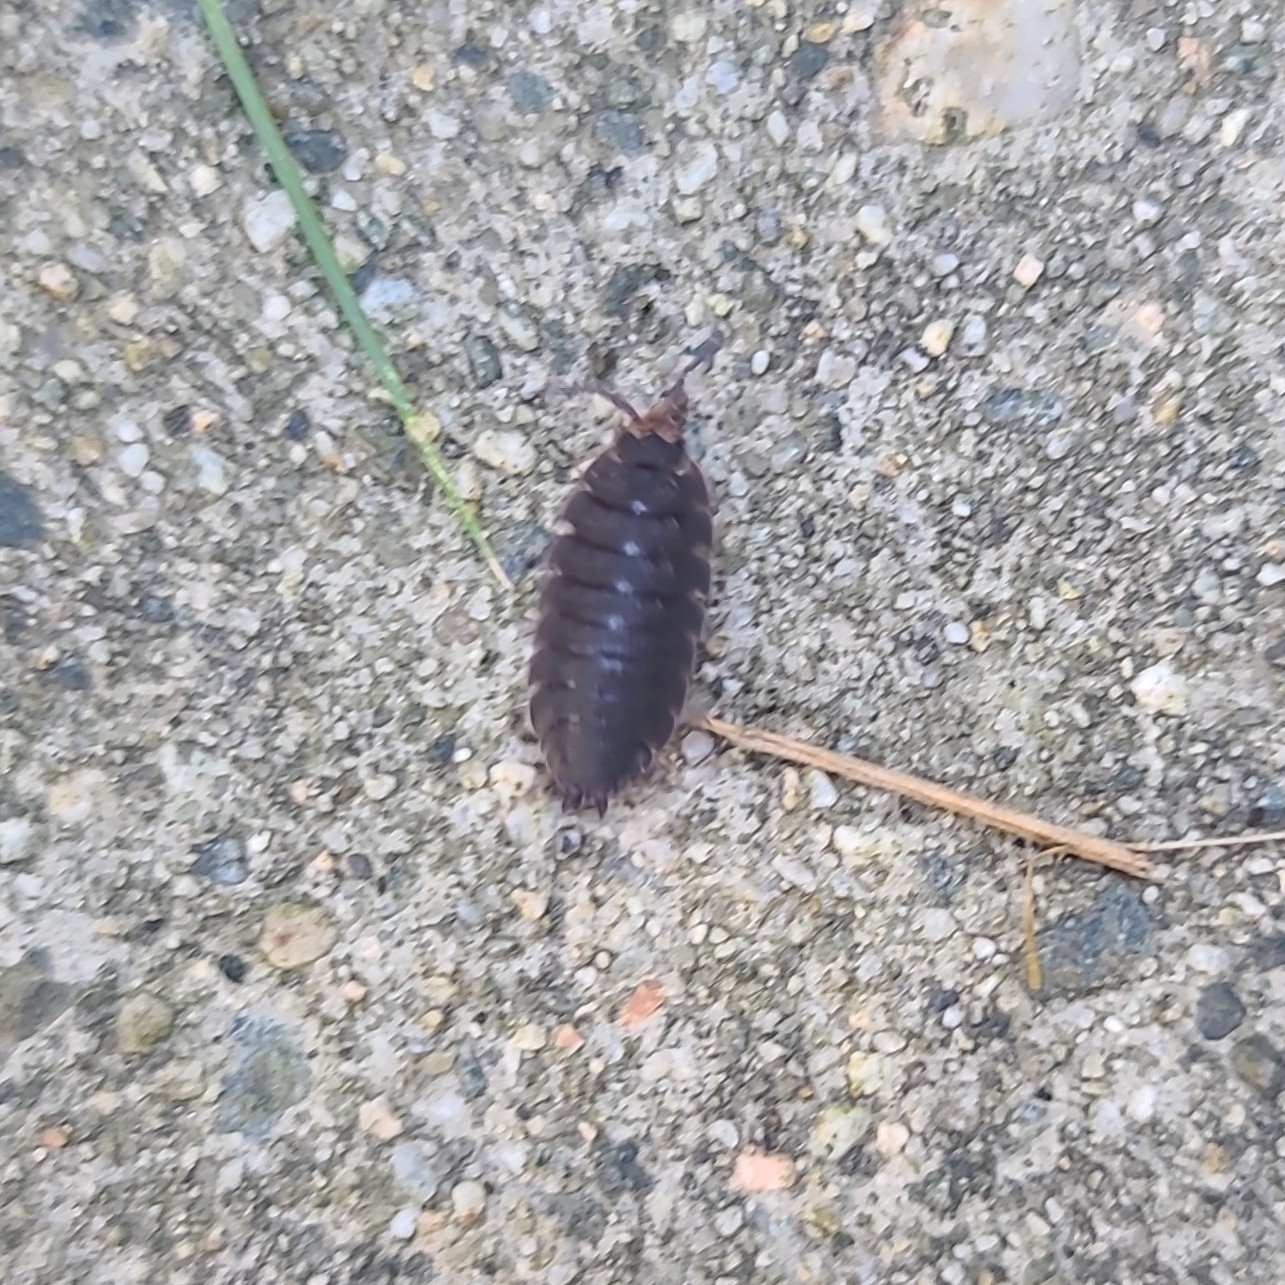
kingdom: Animalia
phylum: Arthropoda
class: Malacostraca
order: Isopoda
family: Porcellionidae
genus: Porcellio
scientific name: Porcellio scaber
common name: Common rough woodlouse
